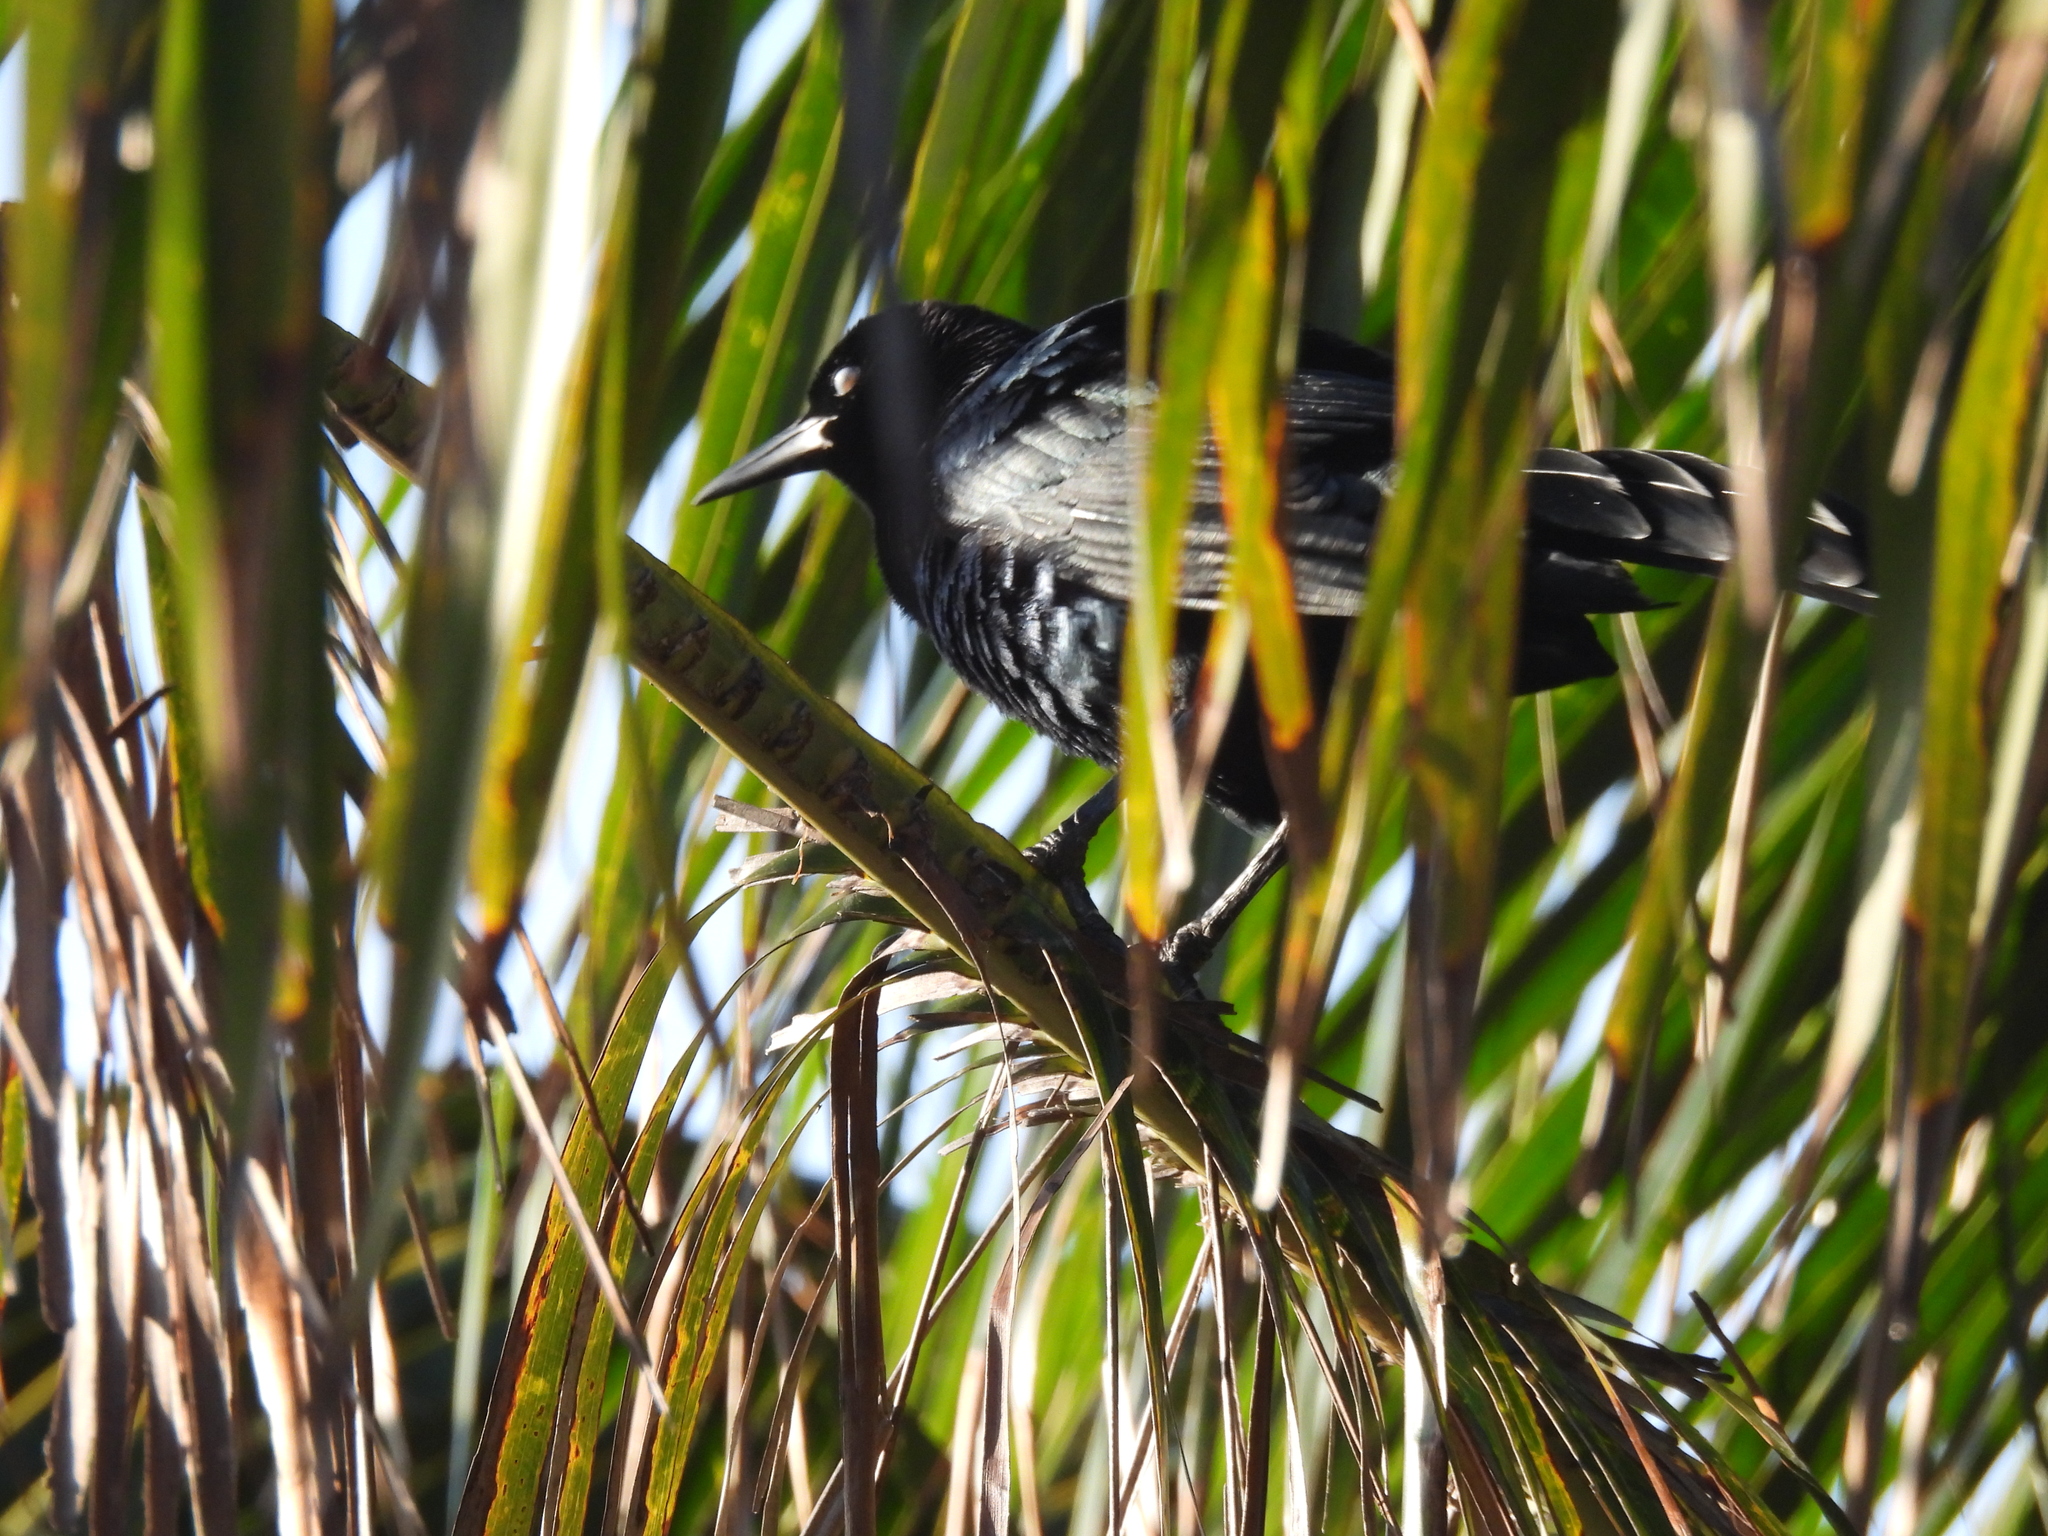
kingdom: Animalia
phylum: Chordata
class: Aves
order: Passeriformes
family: Icteridae
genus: Quiscalus
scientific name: Quiscalus mexicanus
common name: Great-tailed grackle
